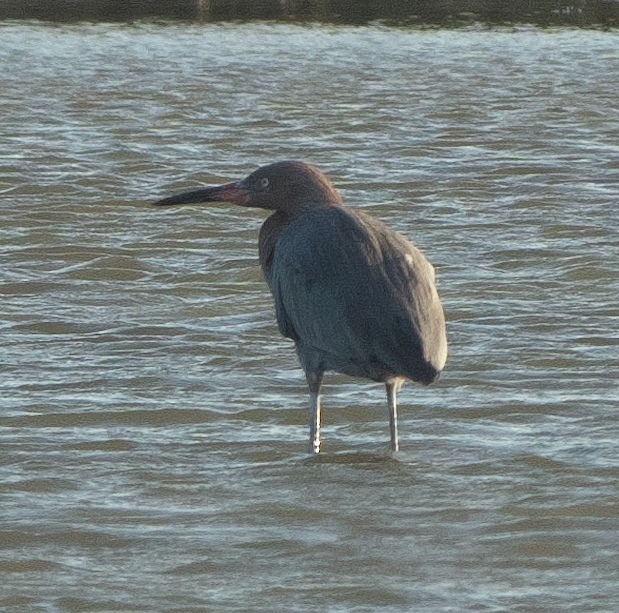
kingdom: Animalia
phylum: Chordata
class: Aves
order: Pelecaniformes
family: Ardeidae
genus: Egretta
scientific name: Egretta rufescens
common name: Reddish egret
